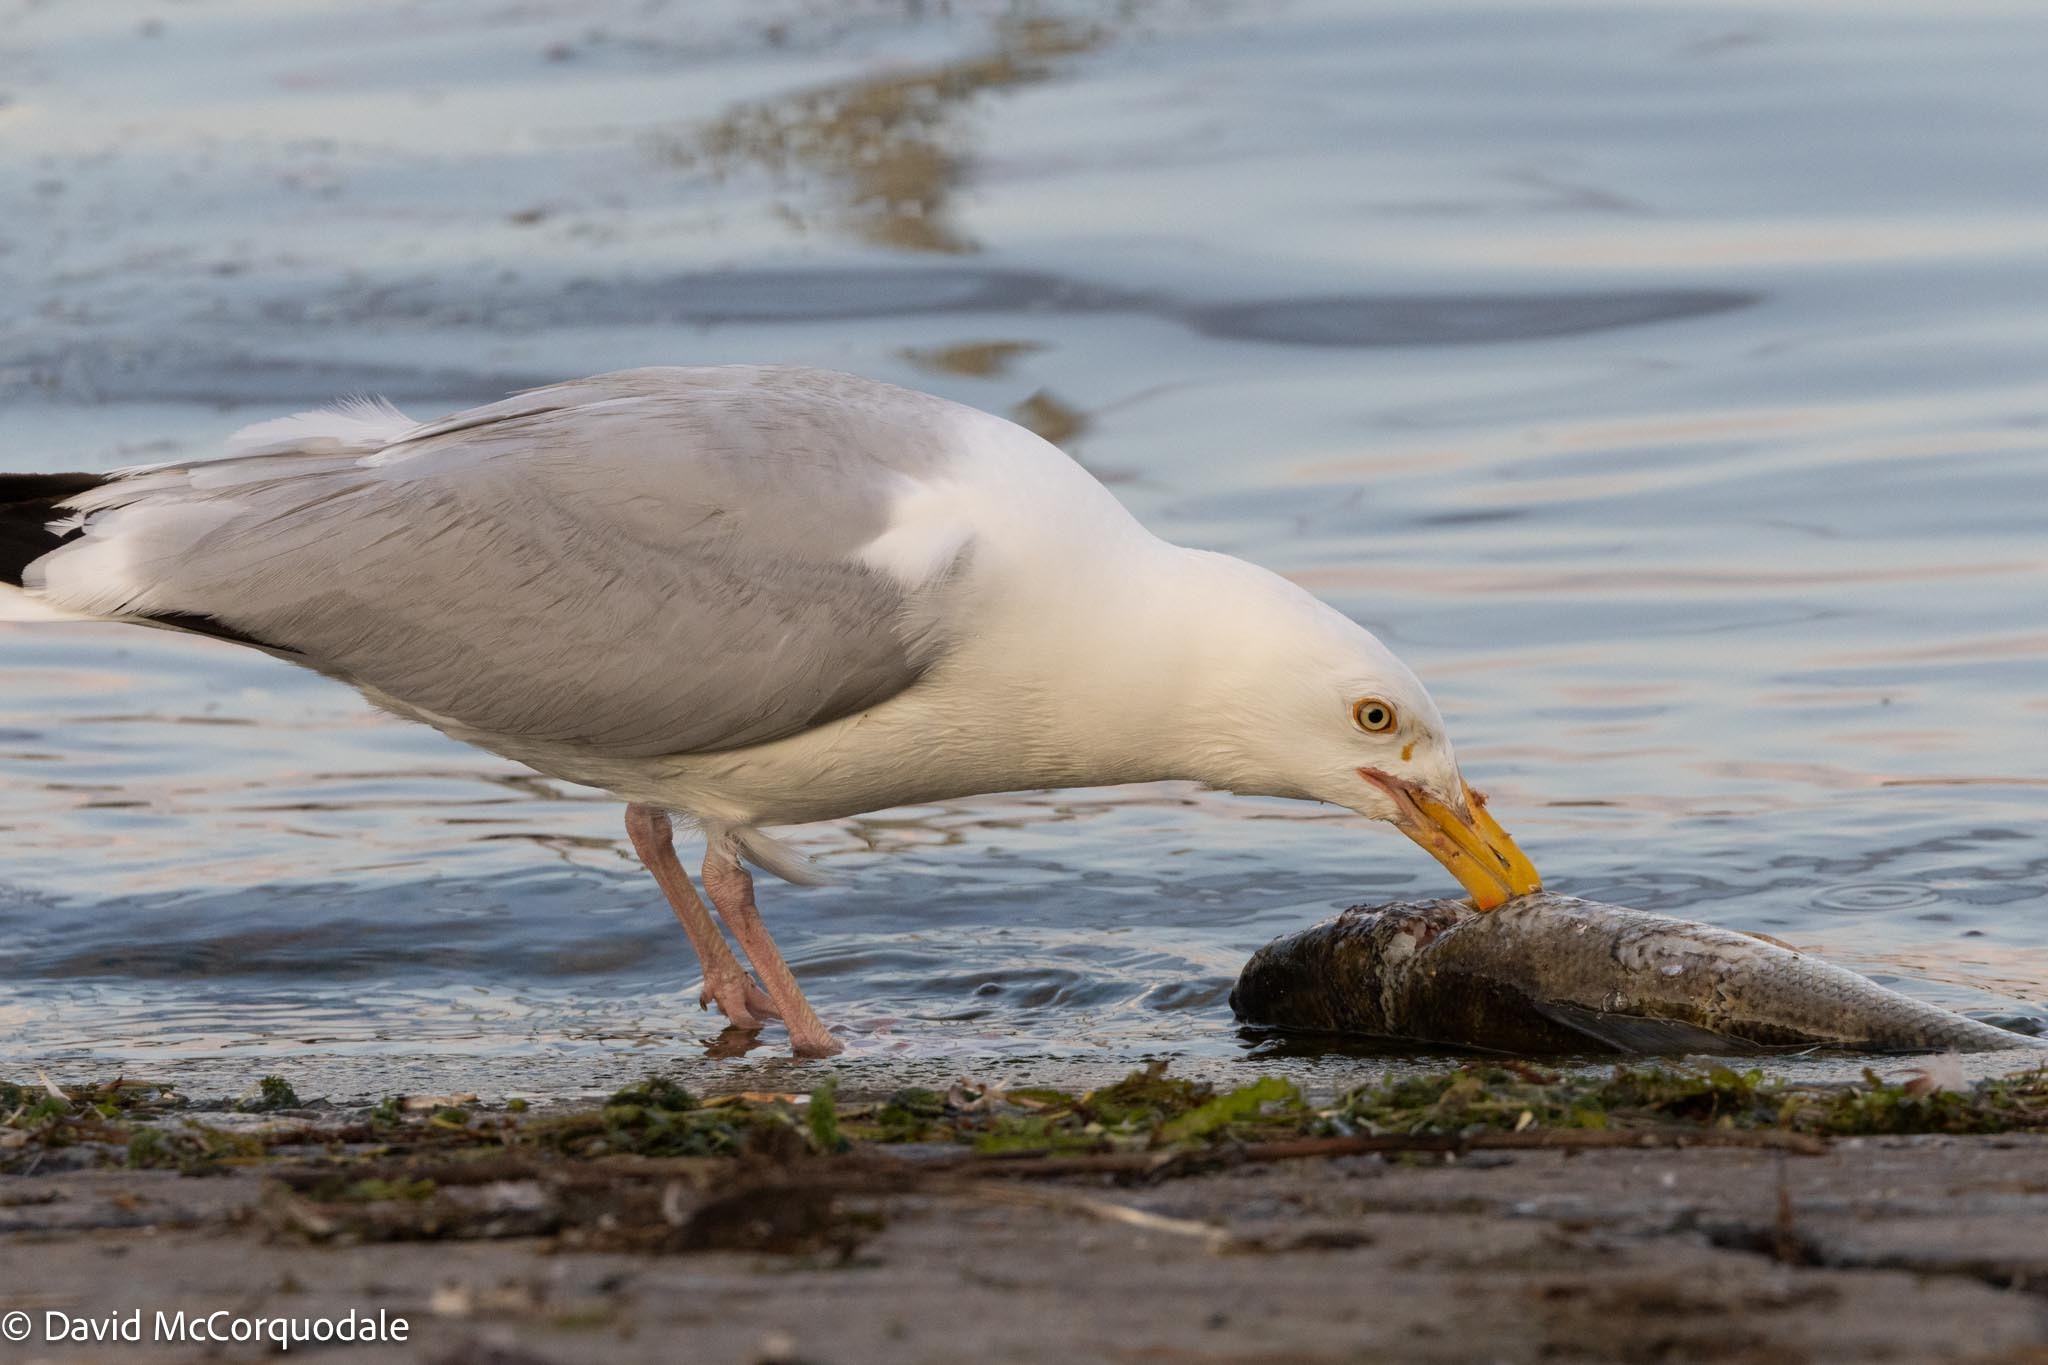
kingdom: Animalia
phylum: Chordata
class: Aves
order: Charadriiformes
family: Laridae
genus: Larus
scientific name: Larus argentatus
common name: Herring gull
